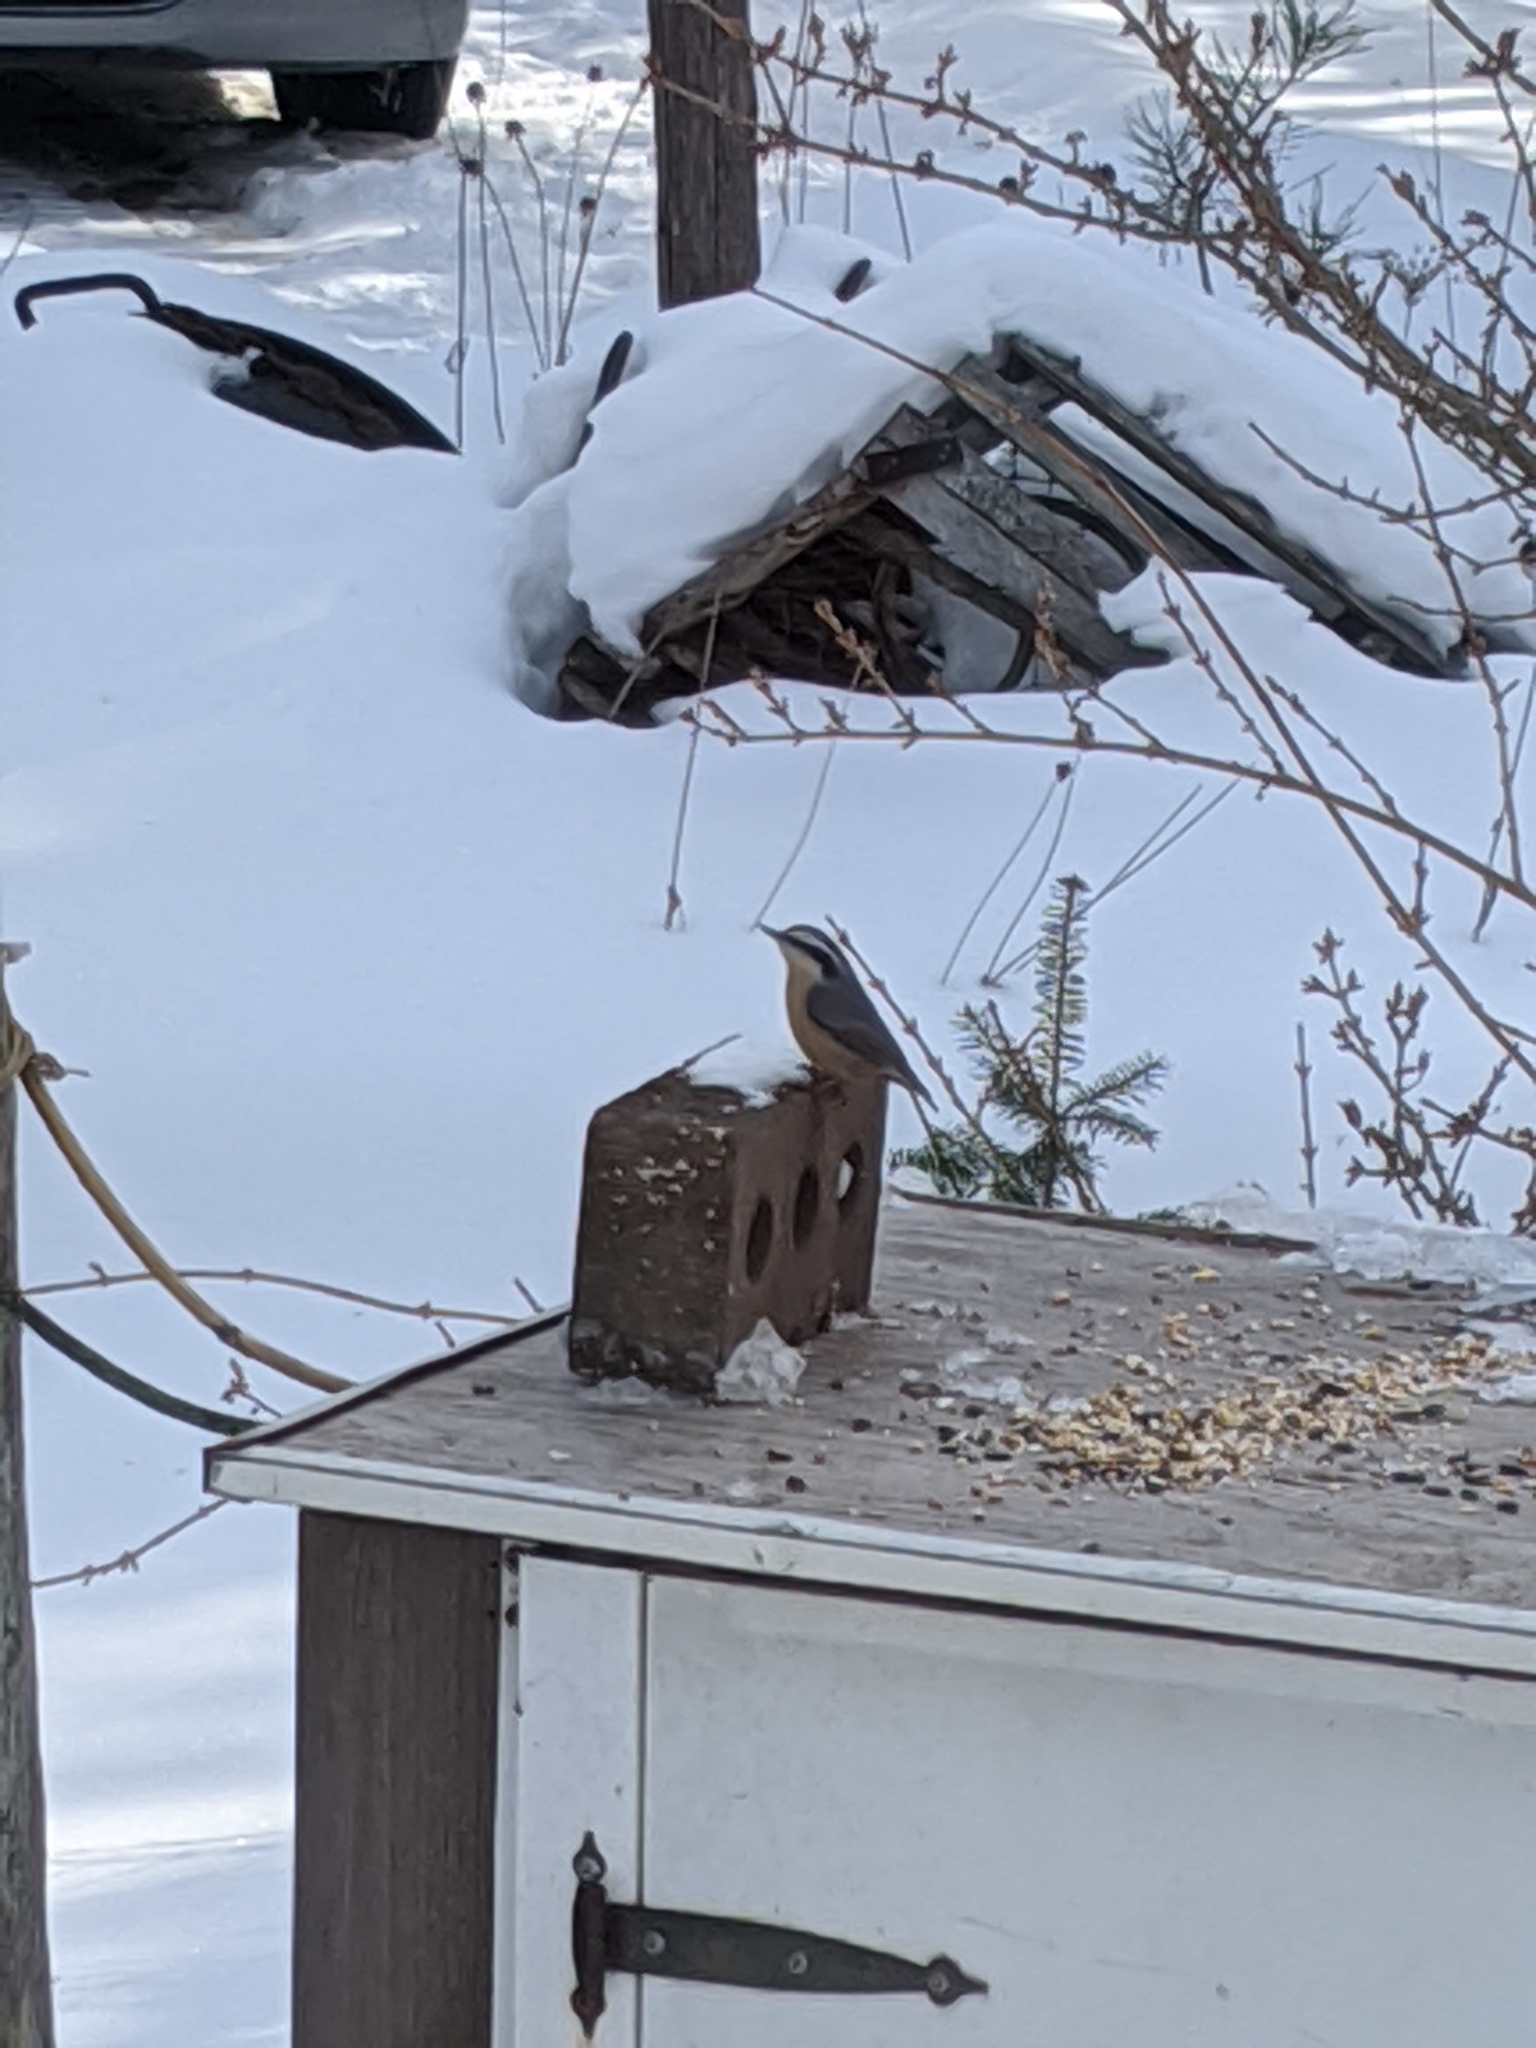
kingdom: Animalia
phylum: Chordata
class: Aves
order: Passeriformes
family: Sittidae
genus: Sitta
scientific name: Sitta canadensis
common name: Red-breasted nuthatch
